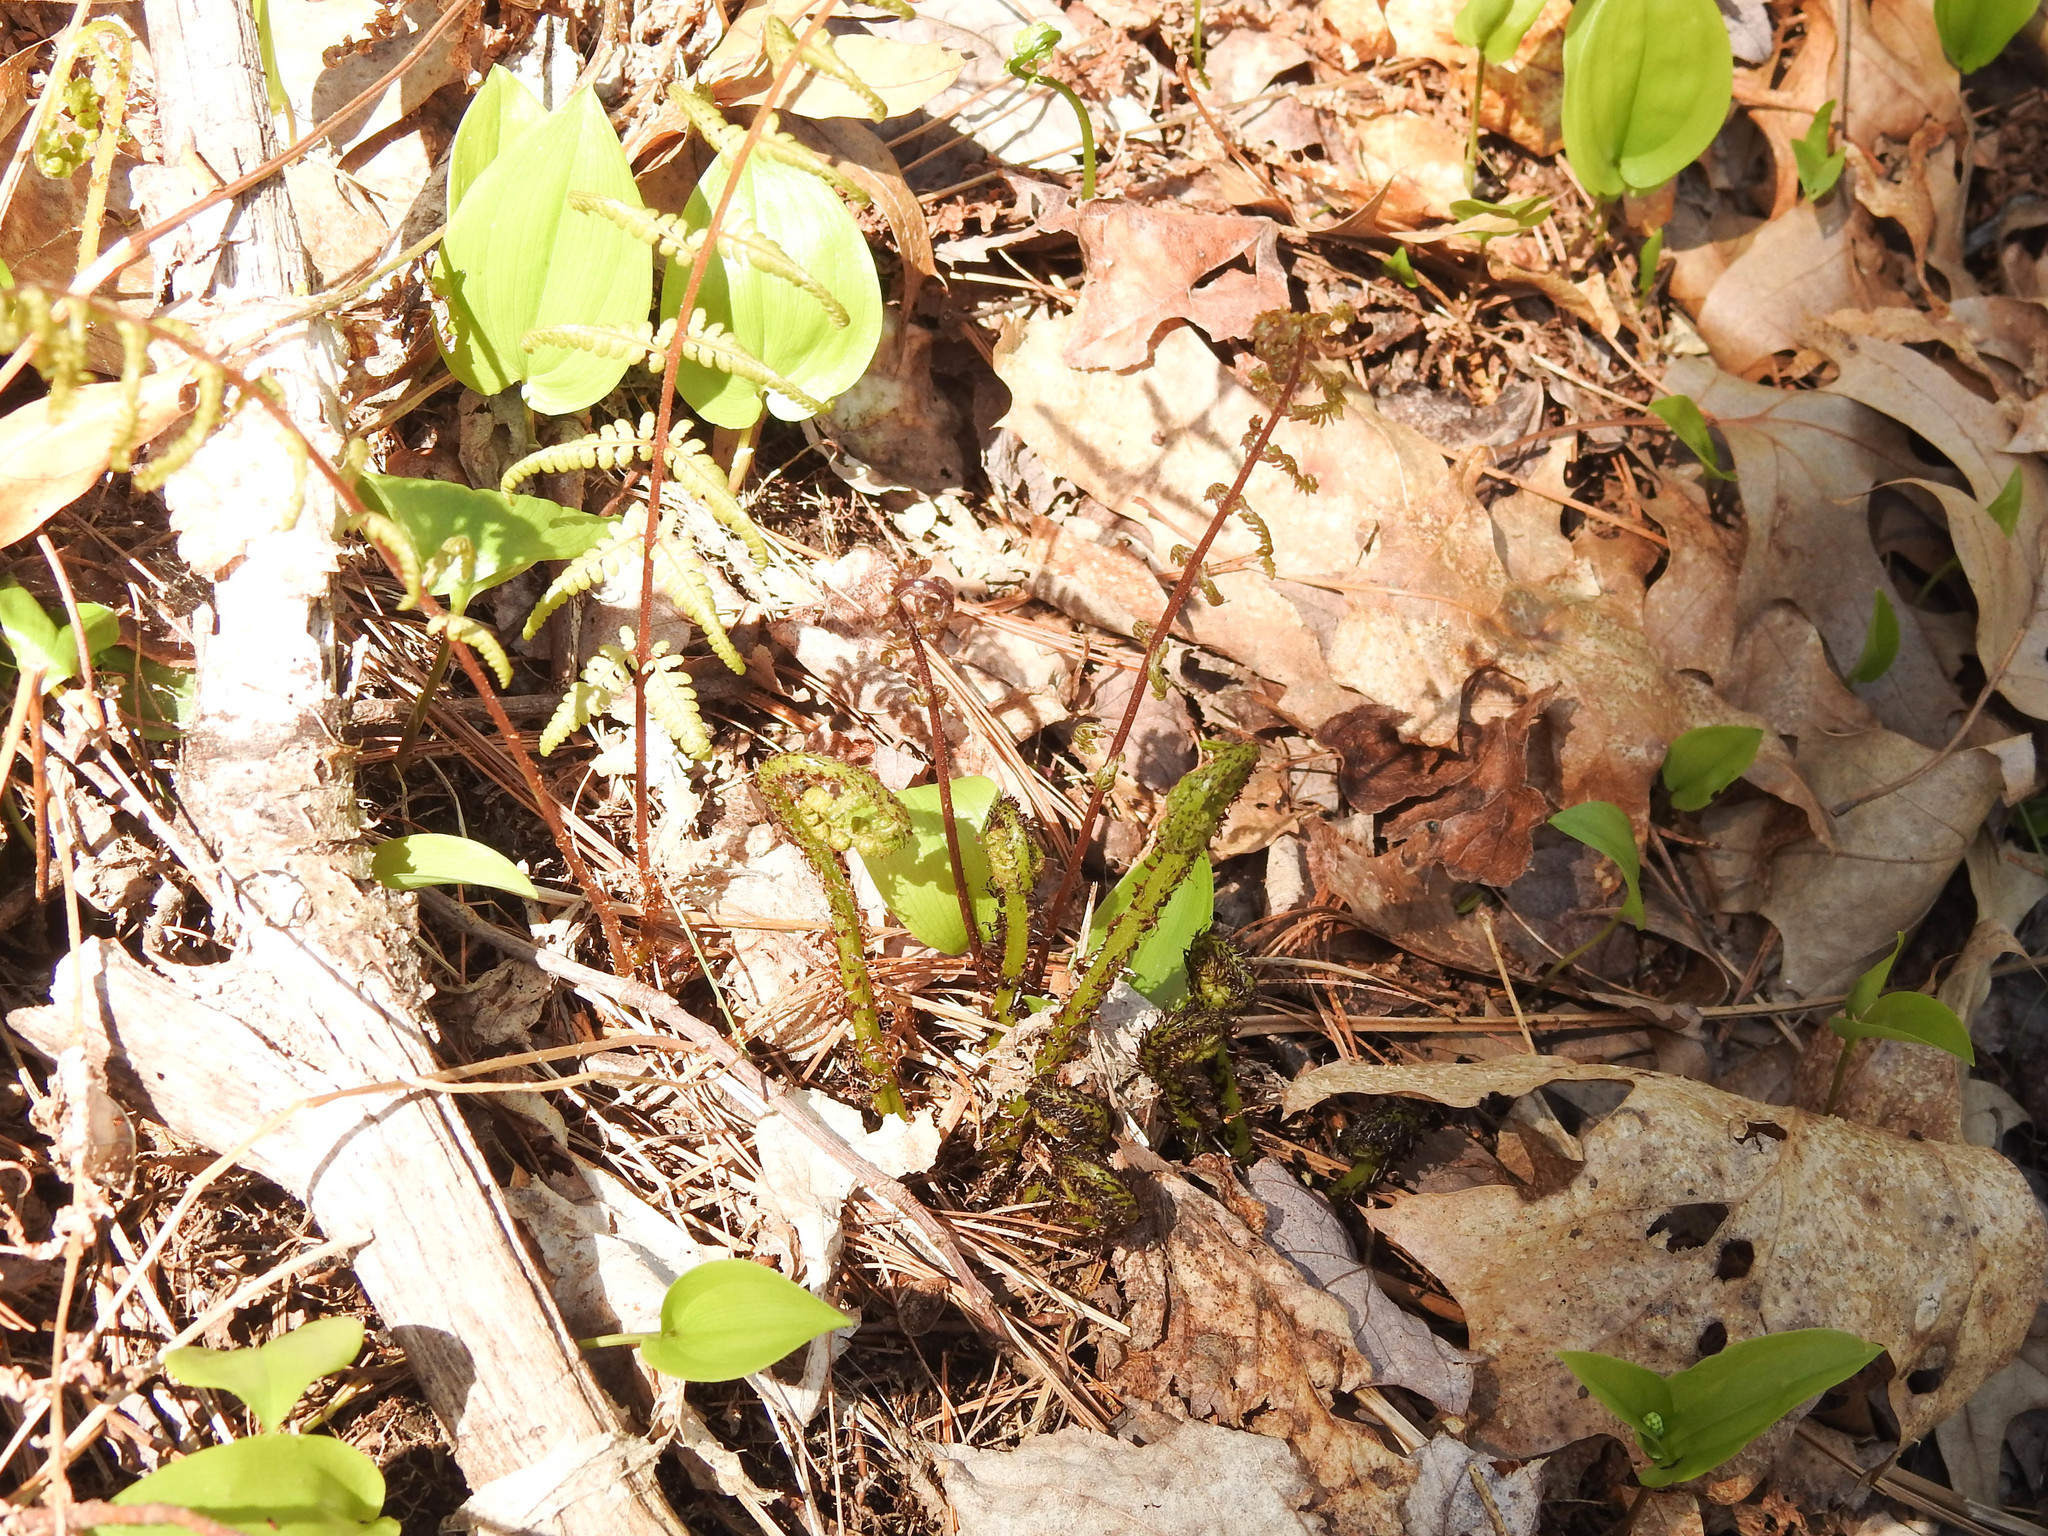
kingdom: Plantae
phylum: Tracheophyta
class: Polypodiopsida
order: Polypodiales
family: Athyriaceae
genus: Athyrium
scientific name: Athyrium angustum
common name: Northern lady fern
